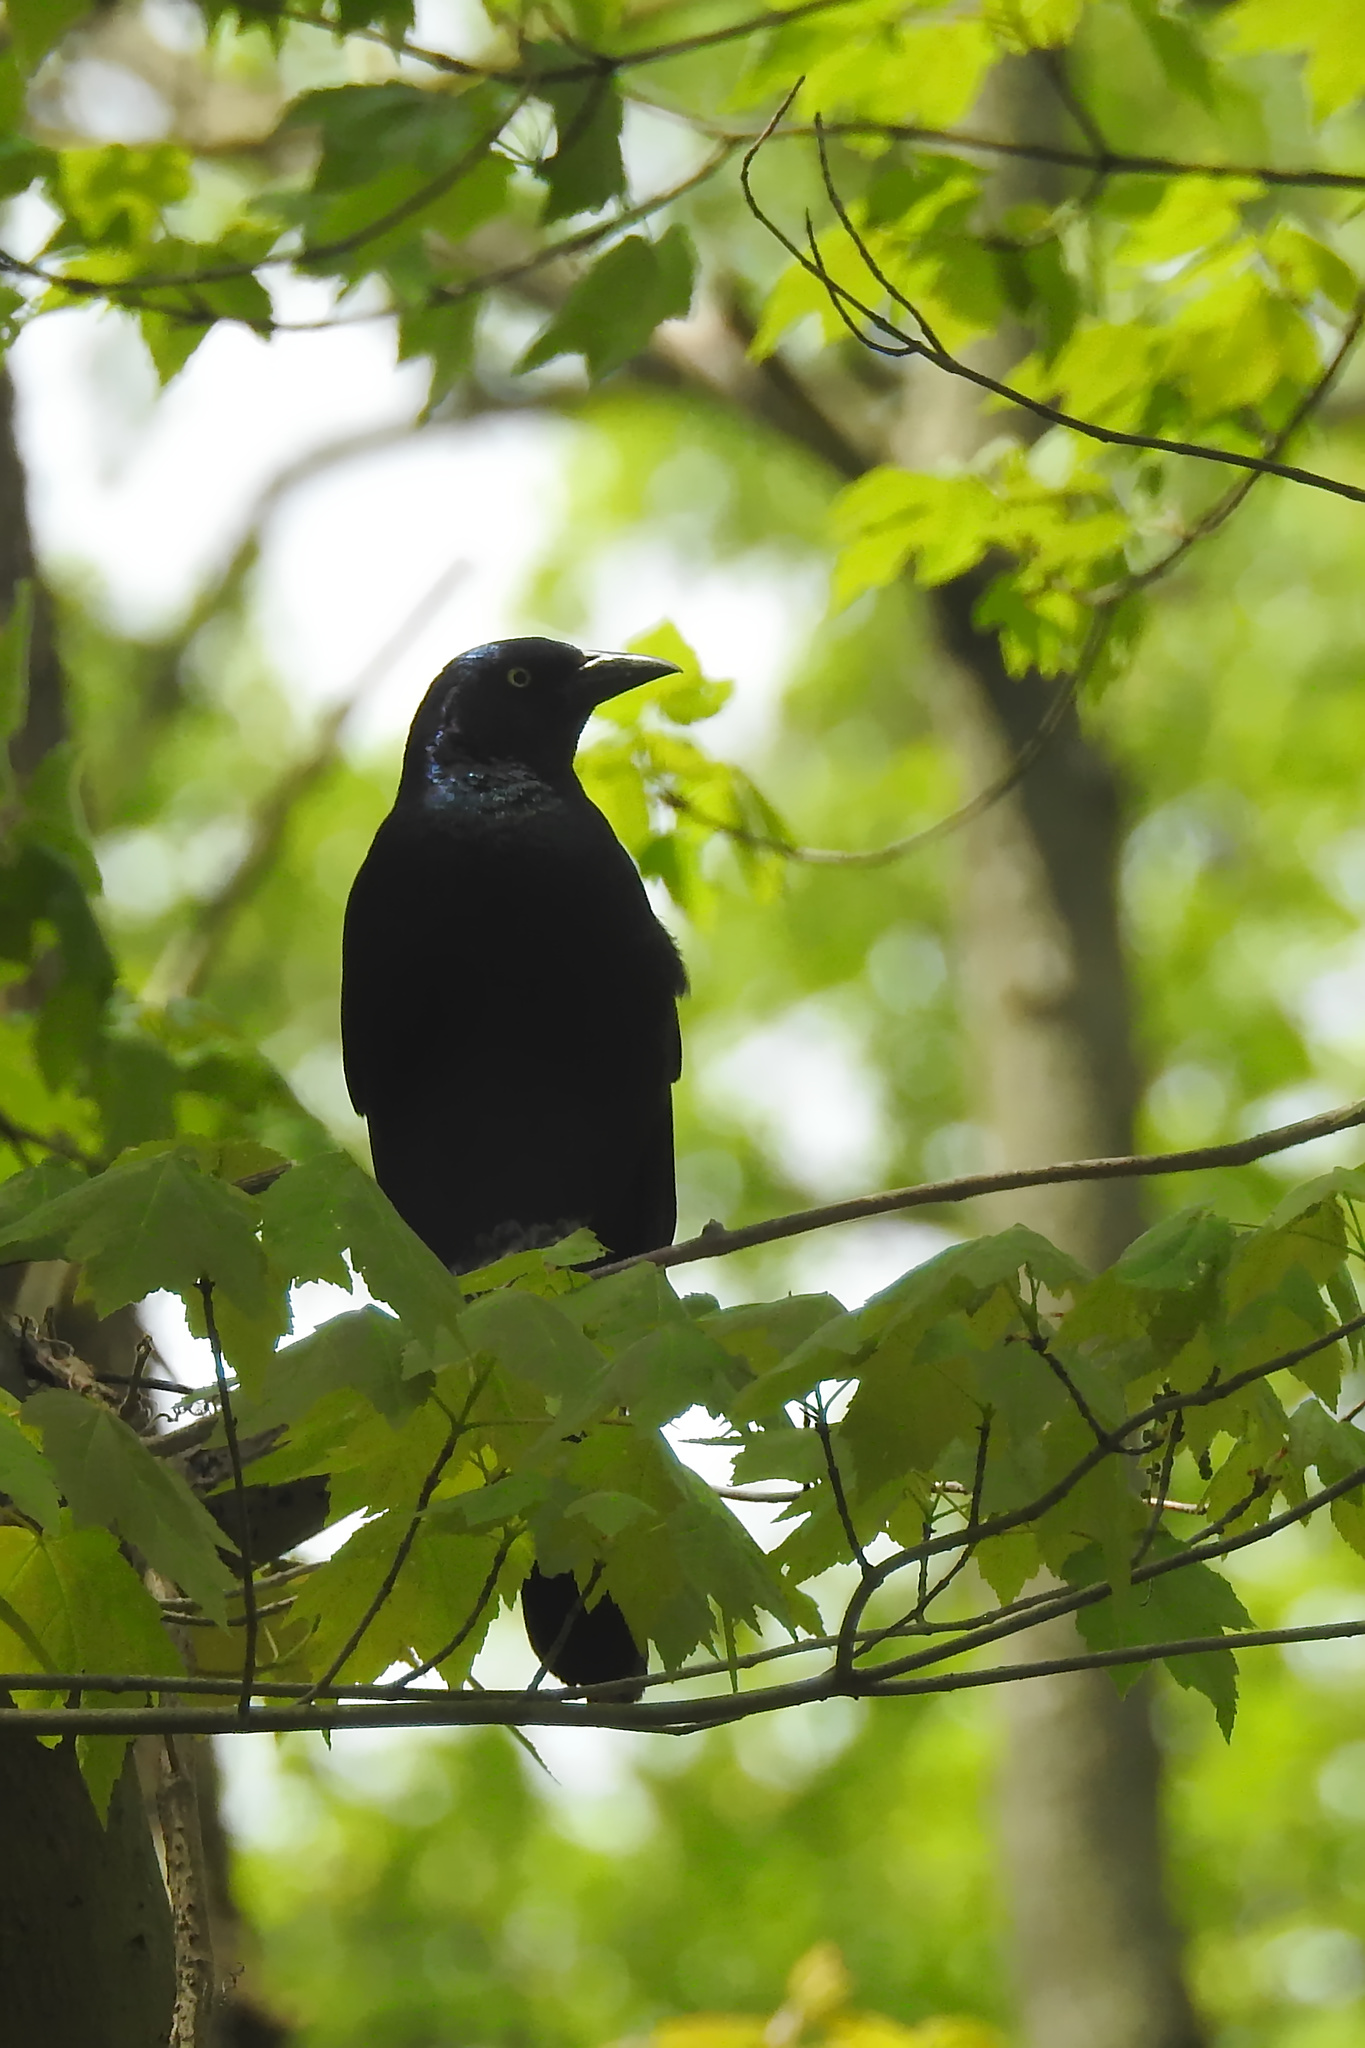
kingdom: Animalia
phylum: Chordata
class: Aves
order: Passeriformes
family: Icteridae
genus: Quiscalus
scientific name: Quiscalus quiscula
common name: Common grackle
